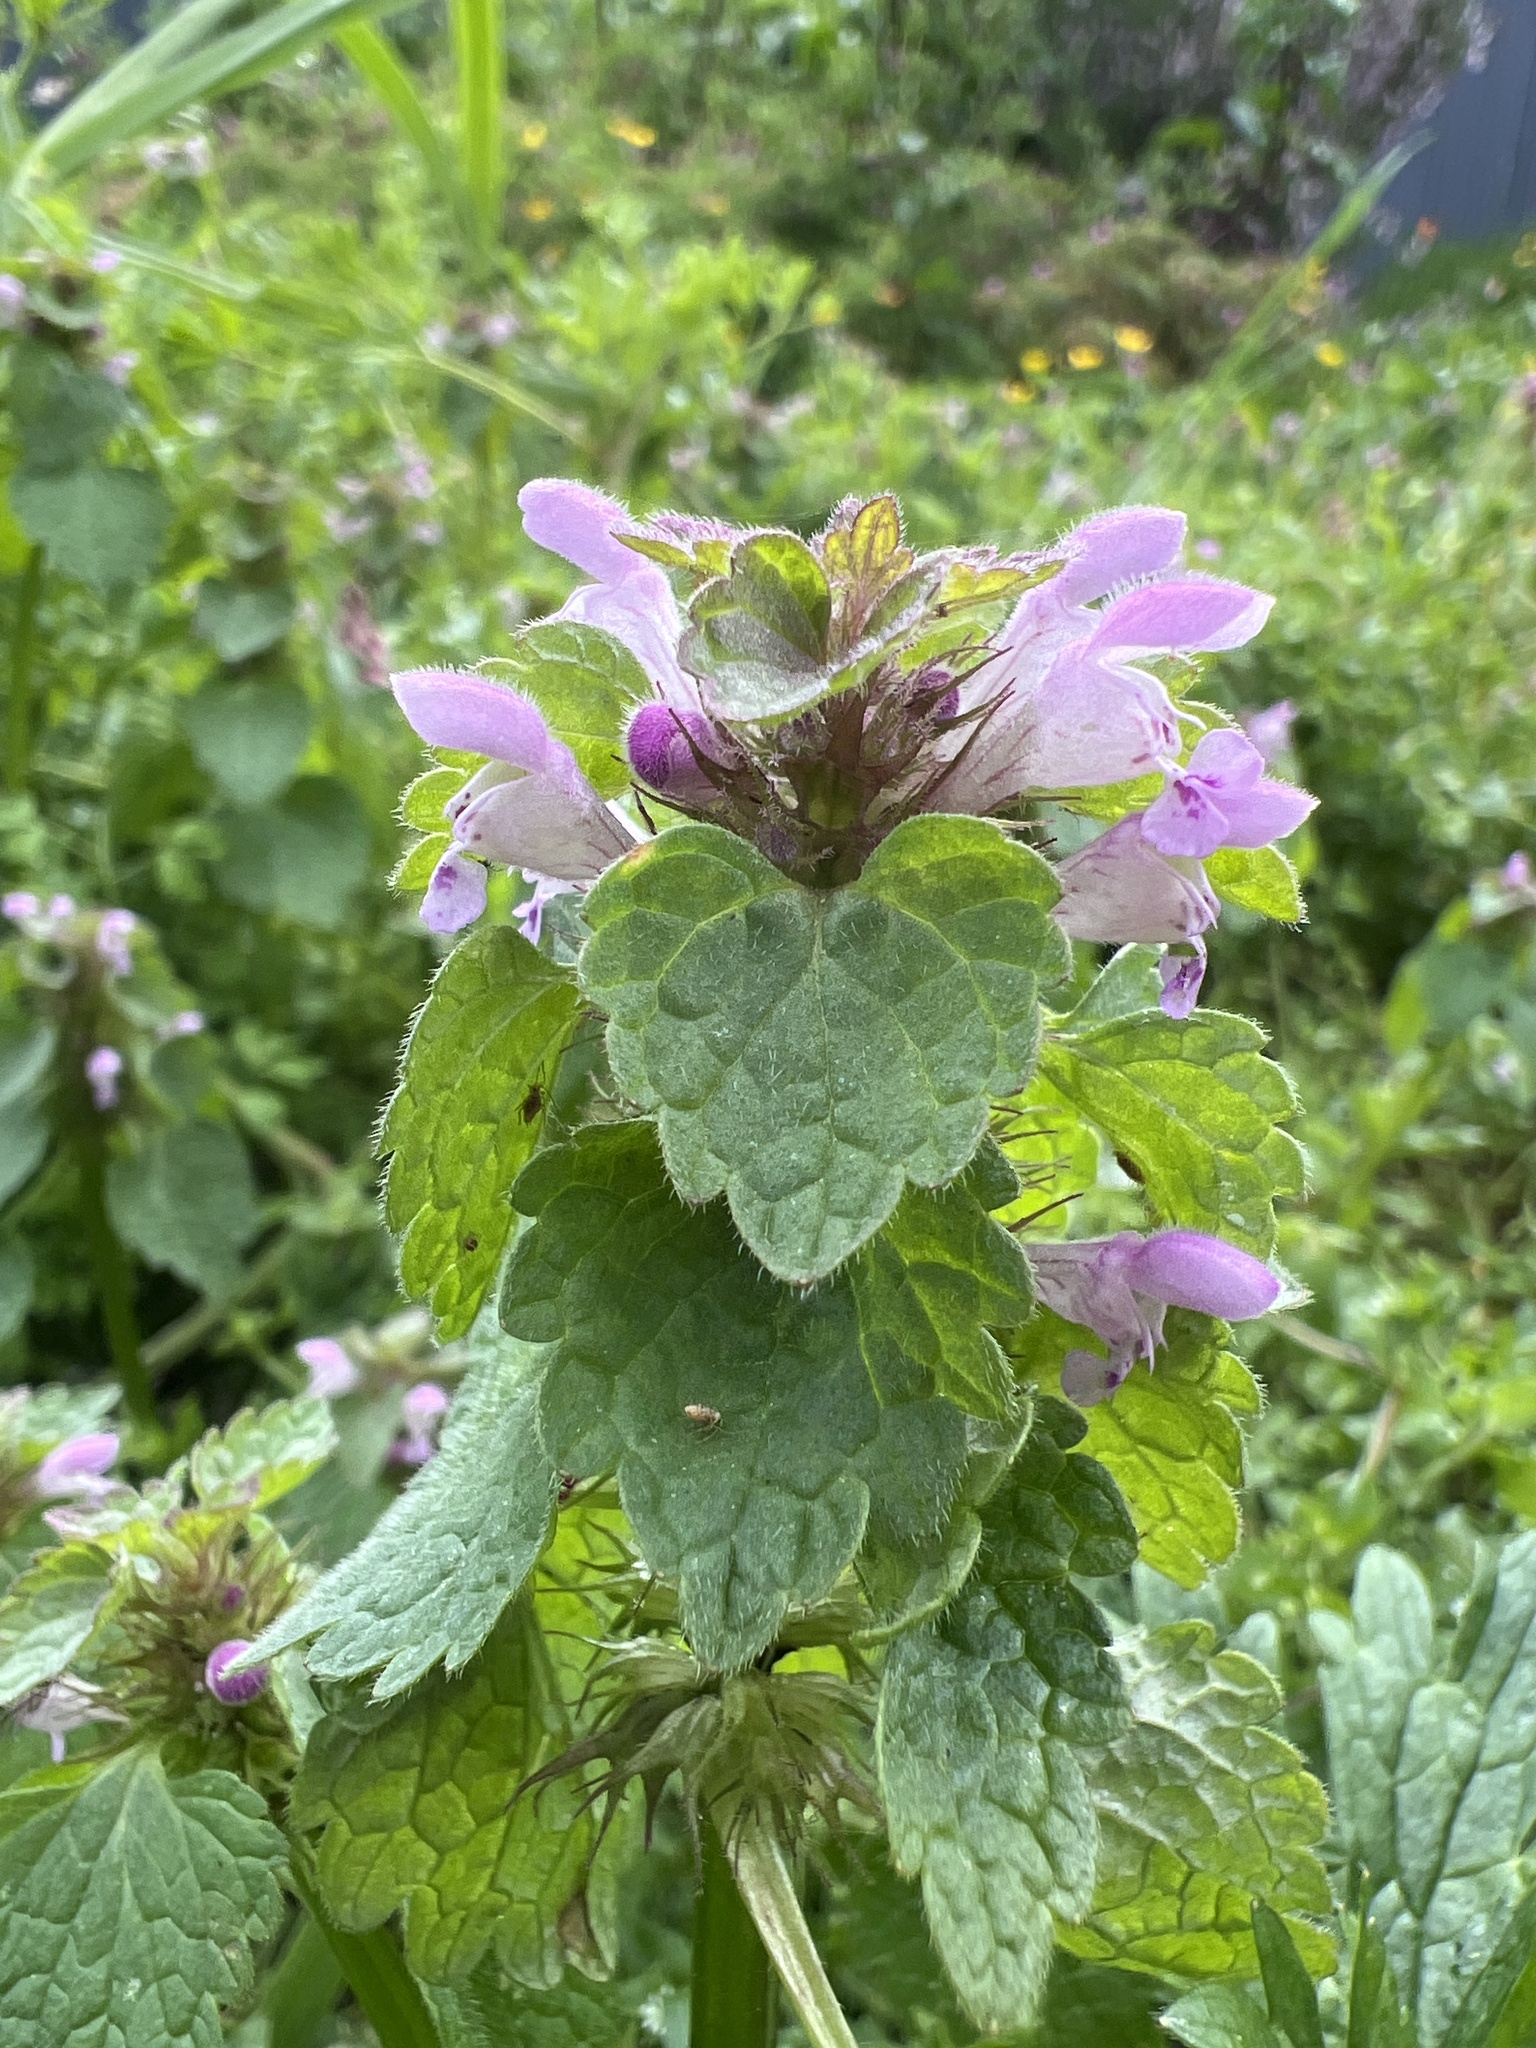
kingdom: Plantae
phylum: Tracheophyta
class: Magnoliopsida
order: Lamiales
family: Lamiaceae
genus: Lamium
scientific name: Lamium purpureum
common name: Red dead-nettle
